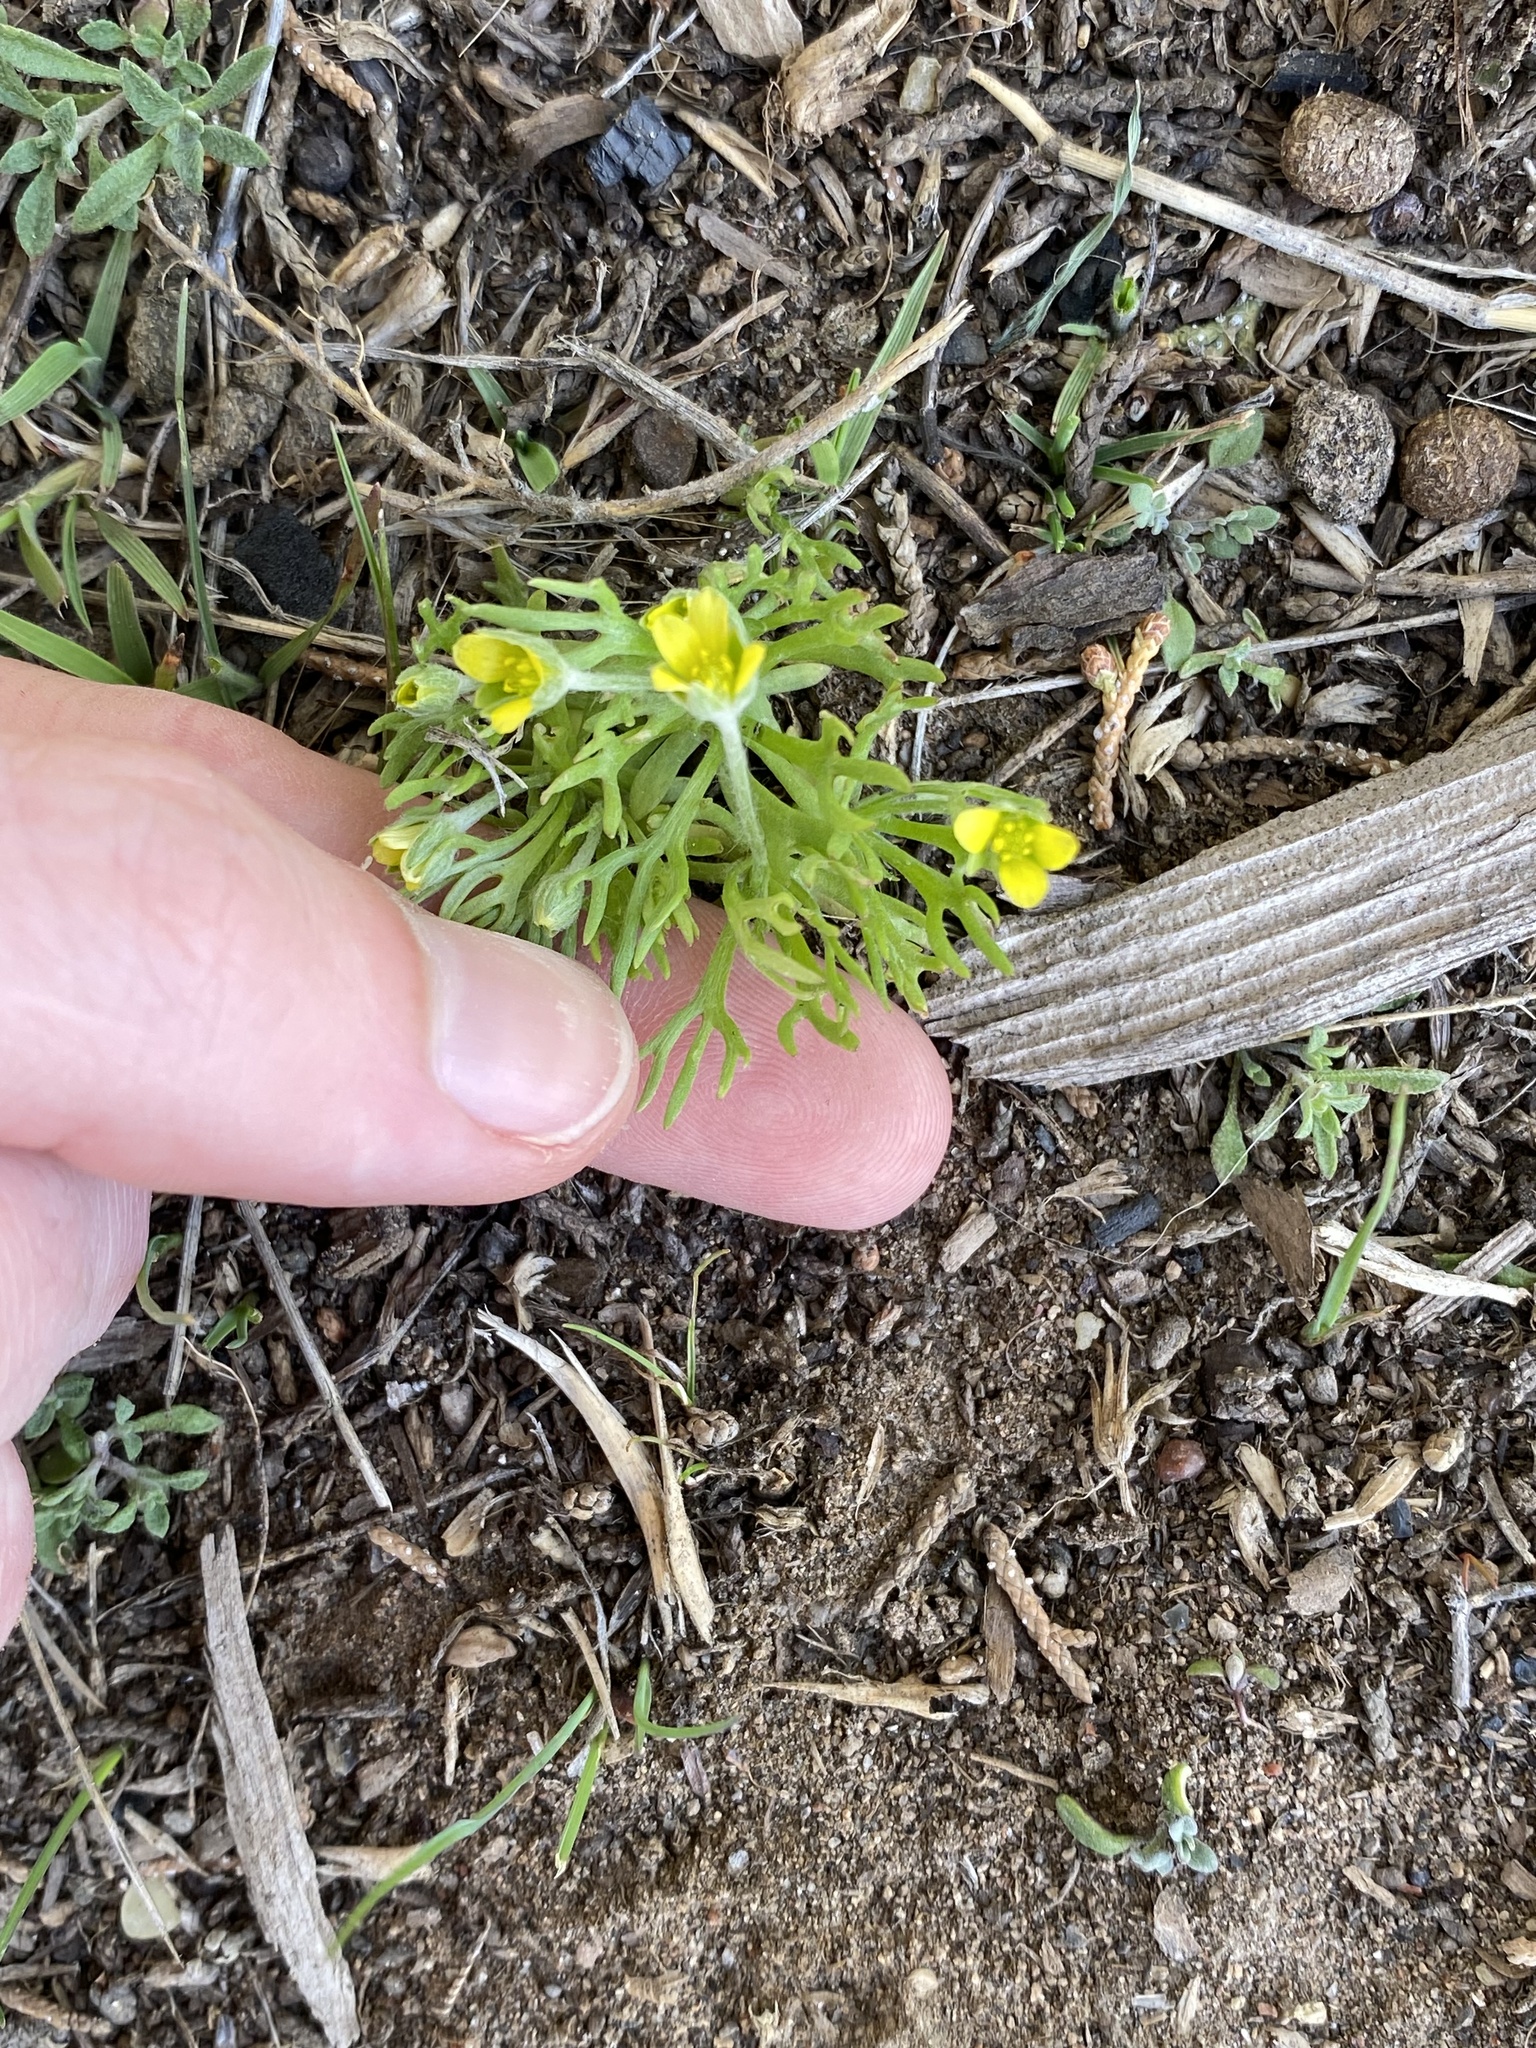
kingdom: Plantae
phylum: Tracheophyta
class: Magnoliopsida
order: Ranunculales
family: Ranunculaceae
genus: Ceratocephala
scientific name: Ceratocephala orthoceras
